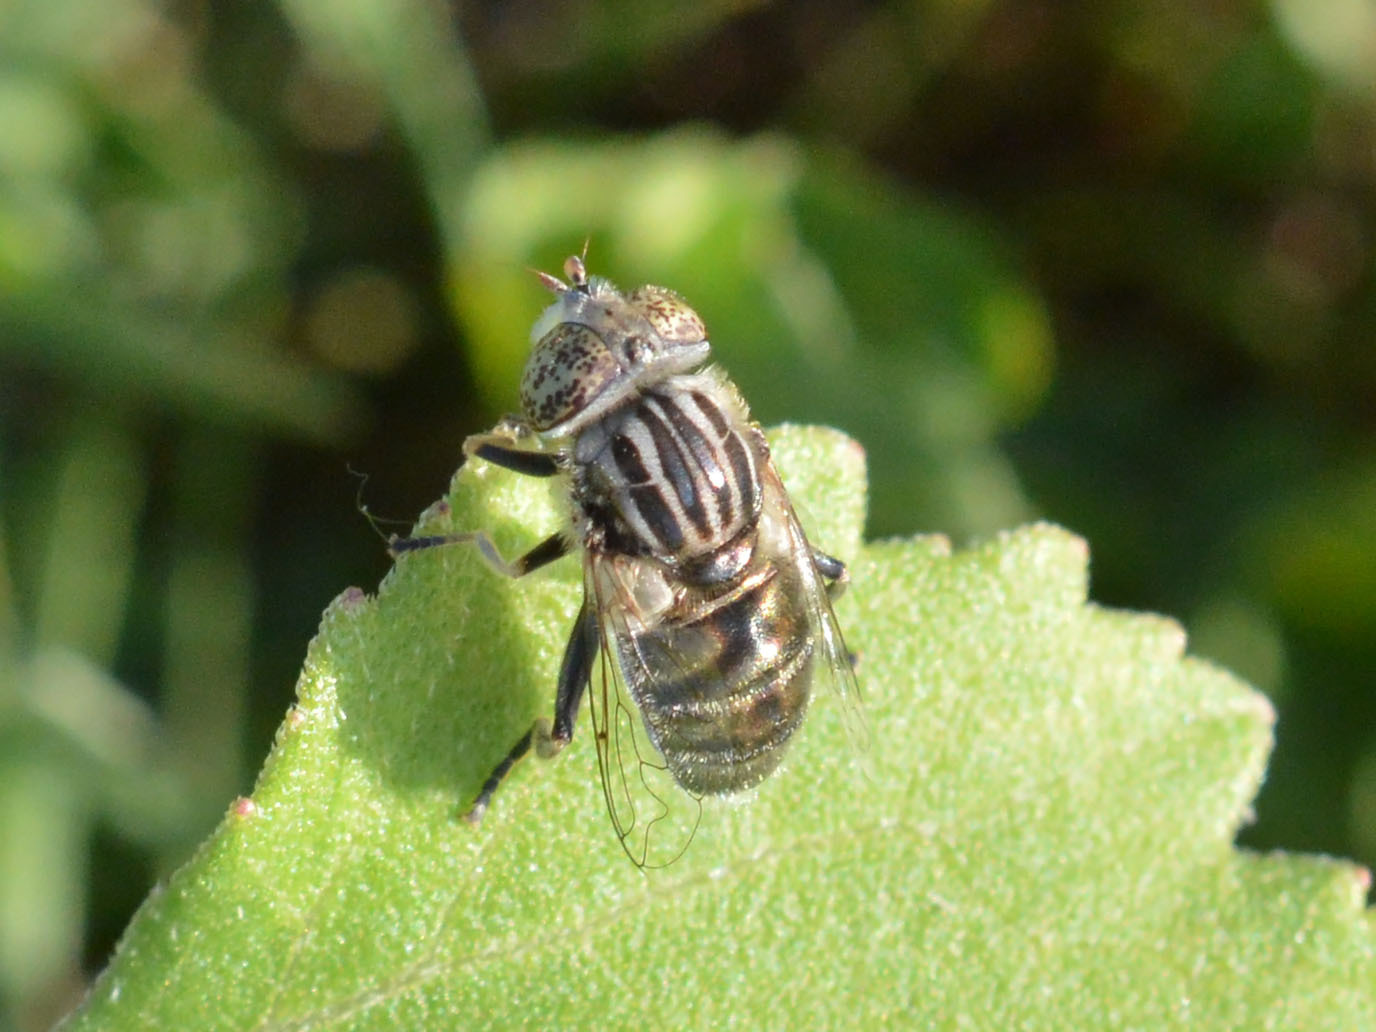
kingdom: Animalia
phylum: Arthropoda
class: Insecta
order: Diptera
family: Syrphidae
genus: Eristalinus
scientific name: Eristalinus sepulchralis
